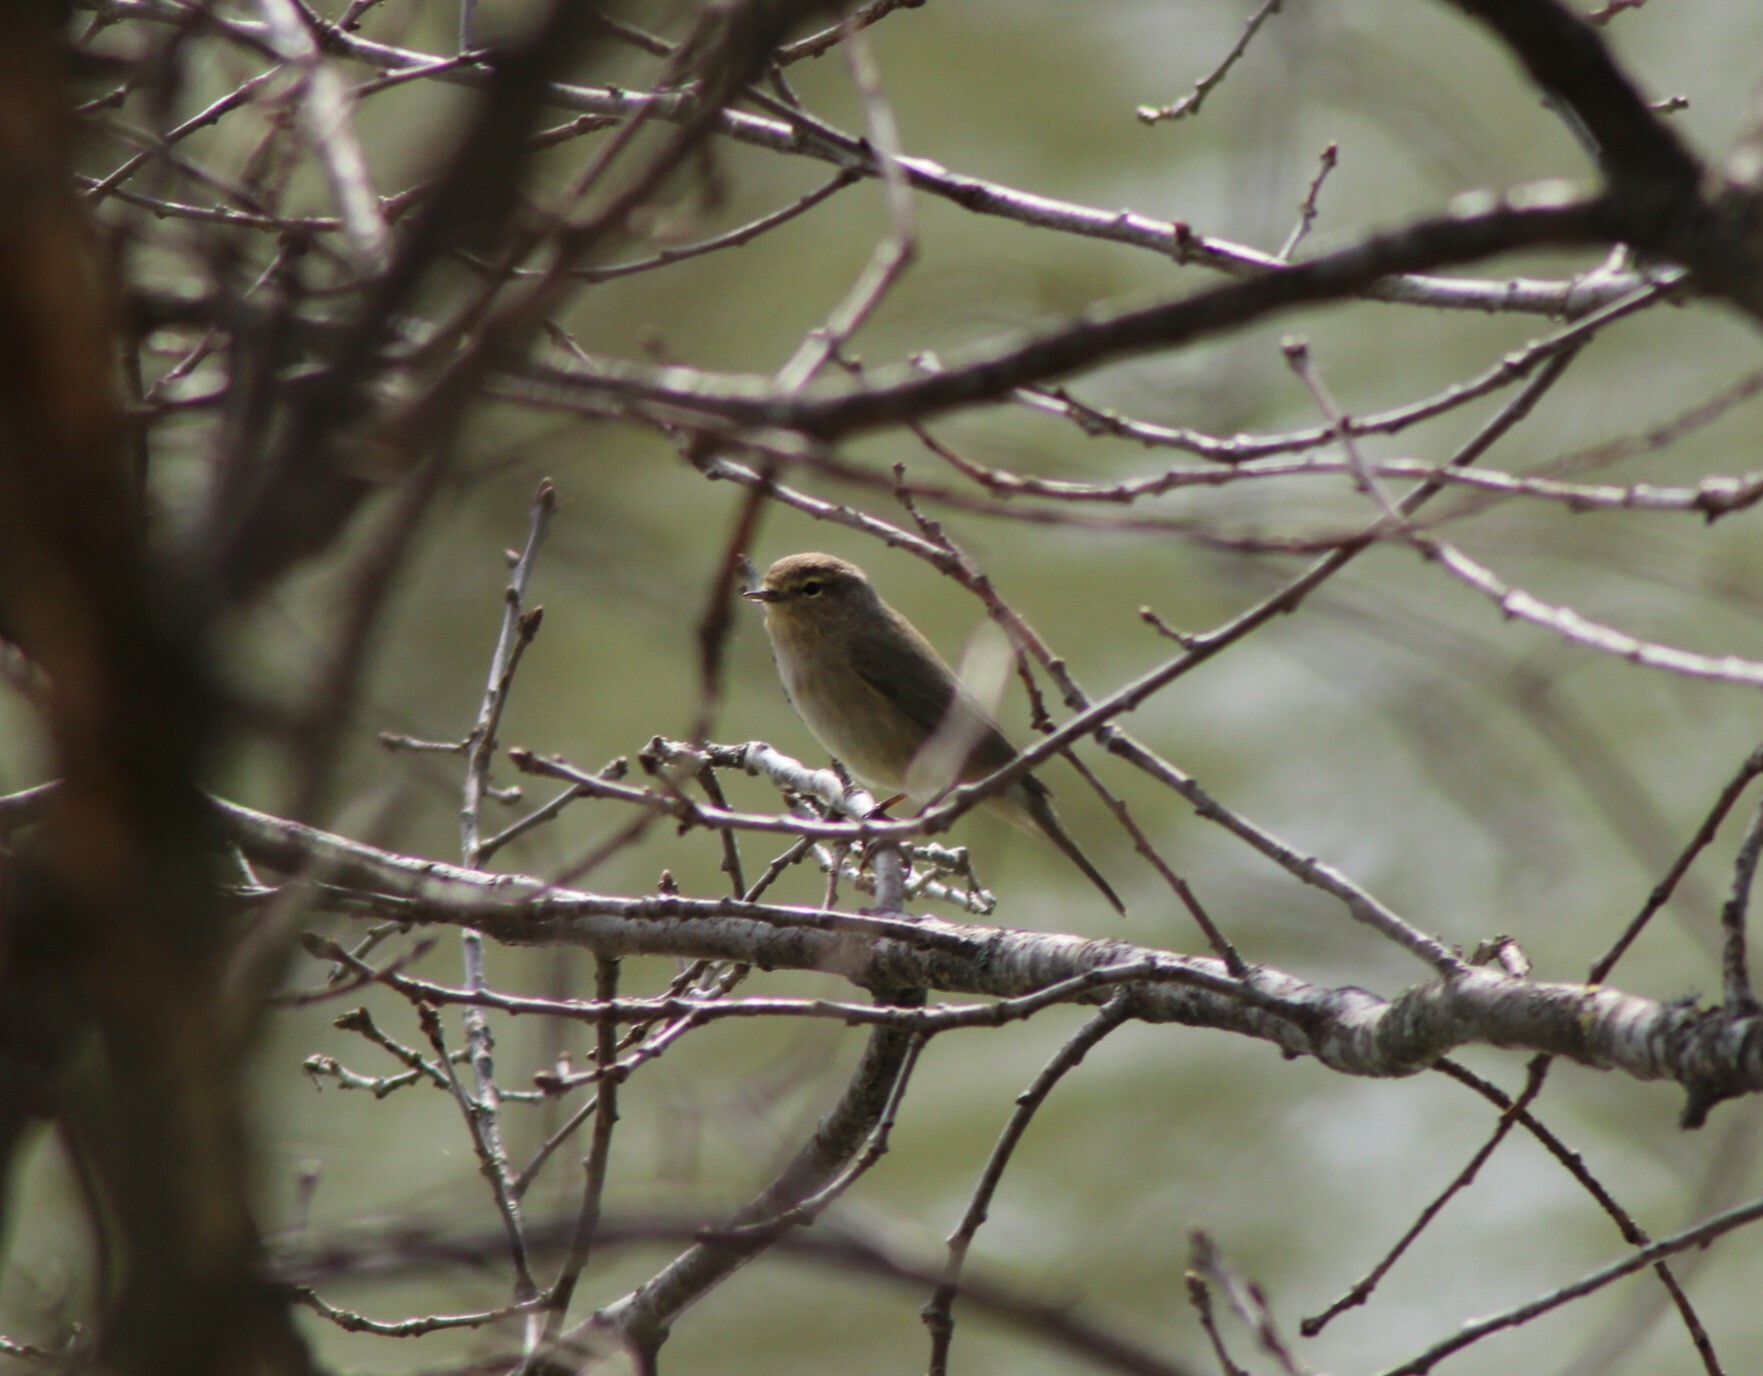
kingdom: Animalia
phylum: Chordata
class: Aves
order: Passeriformes
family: Phylloscopidae
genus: Phylloscopus
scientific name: Phylloscopus collybita
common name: Common chiffchaff
